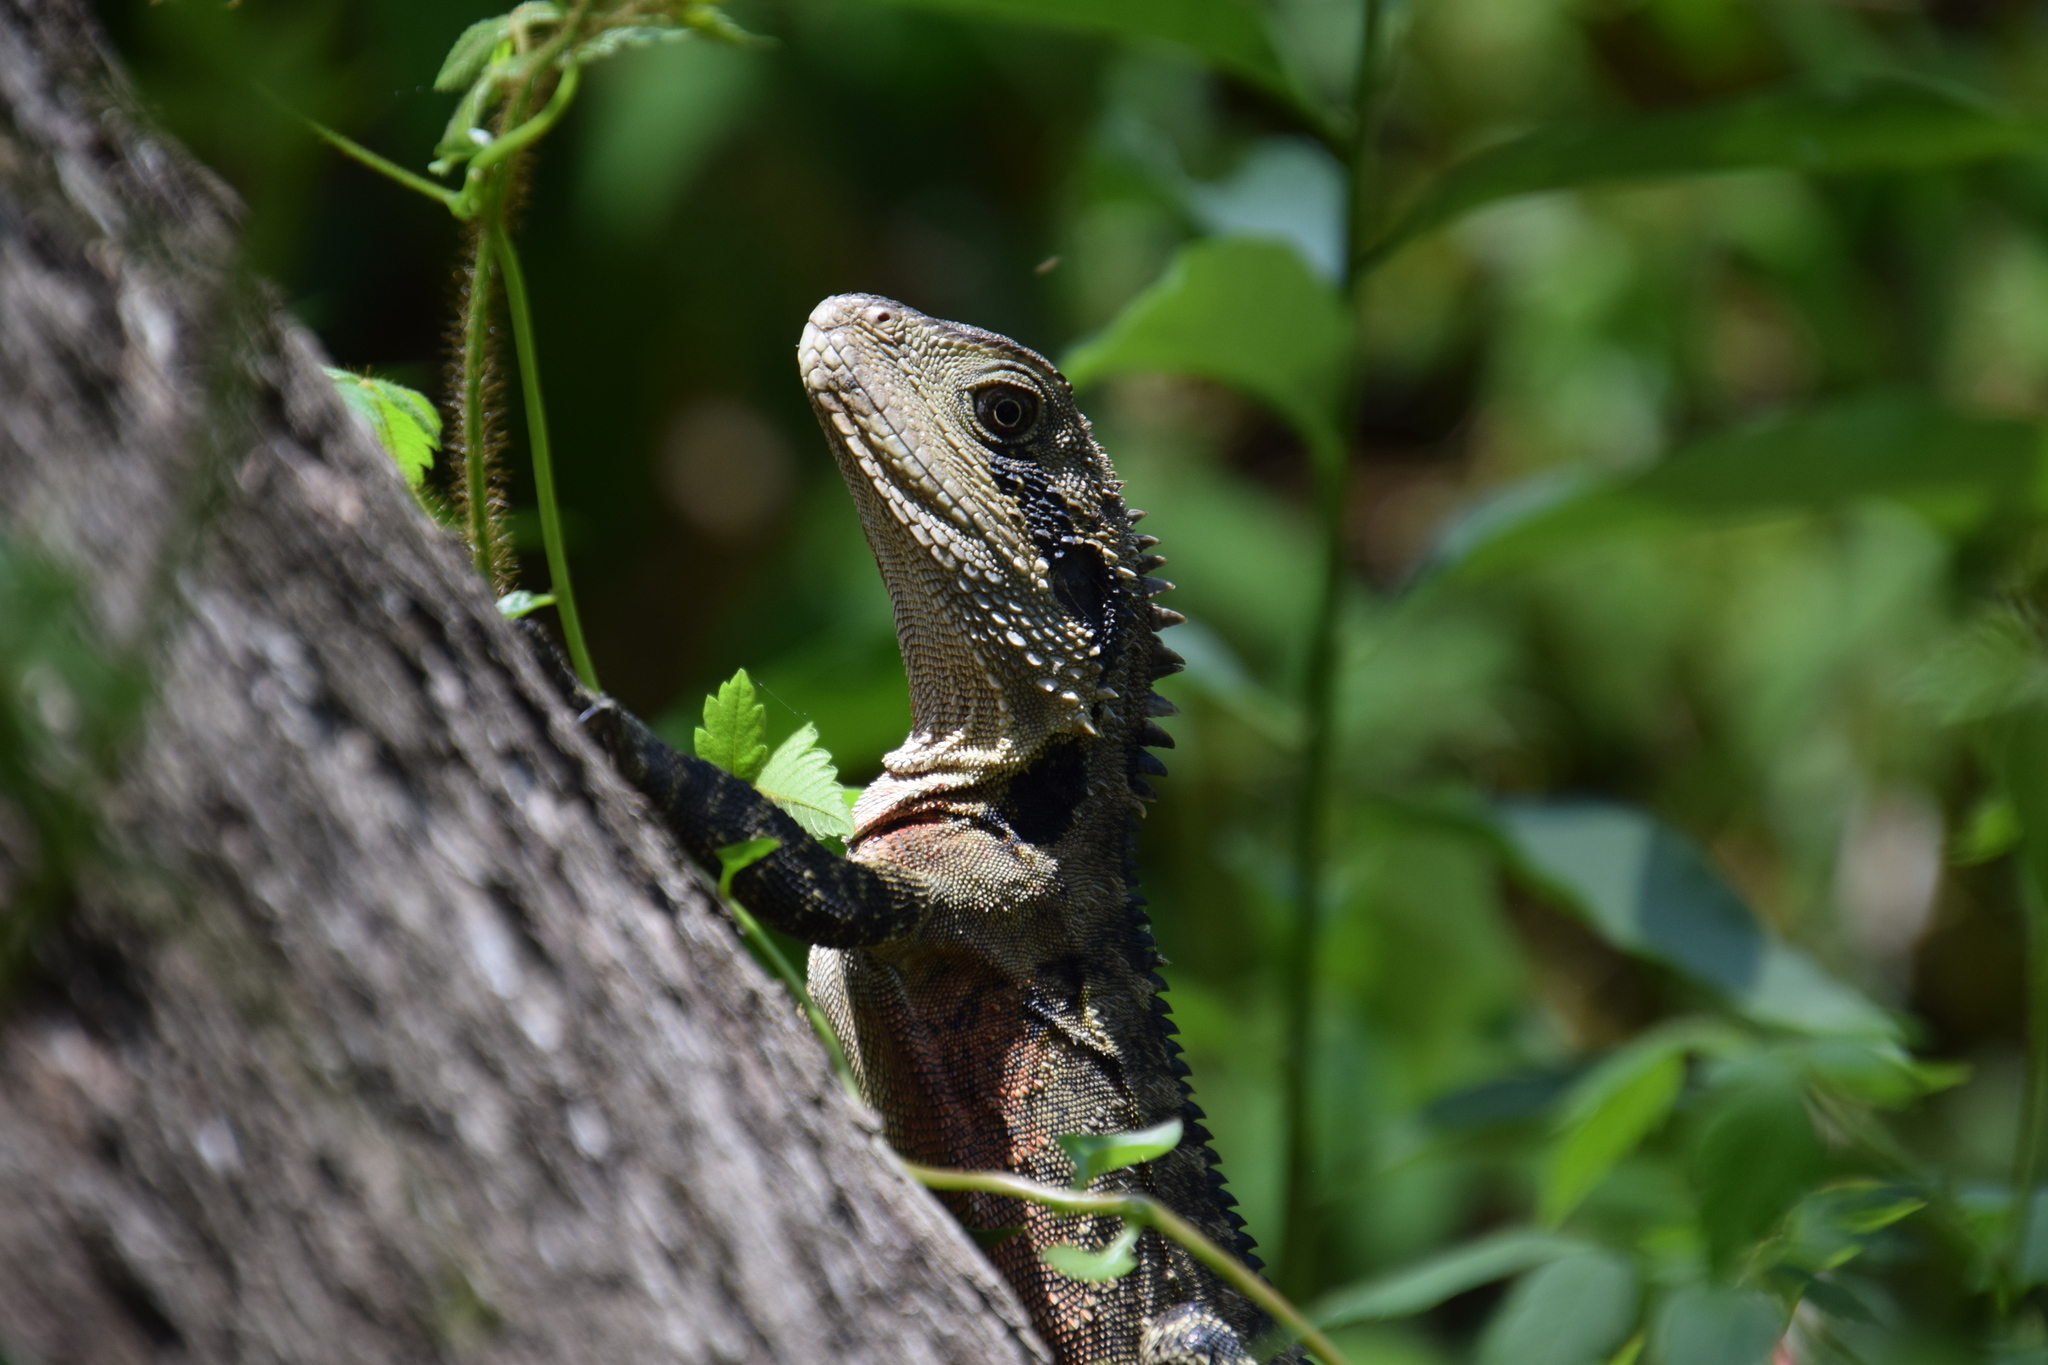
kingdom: Animalia
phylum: Chordata
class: Squamata
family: Agamidae
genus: Intellagama
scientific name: Intellagama lesueurii
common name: Eastern water dragon
